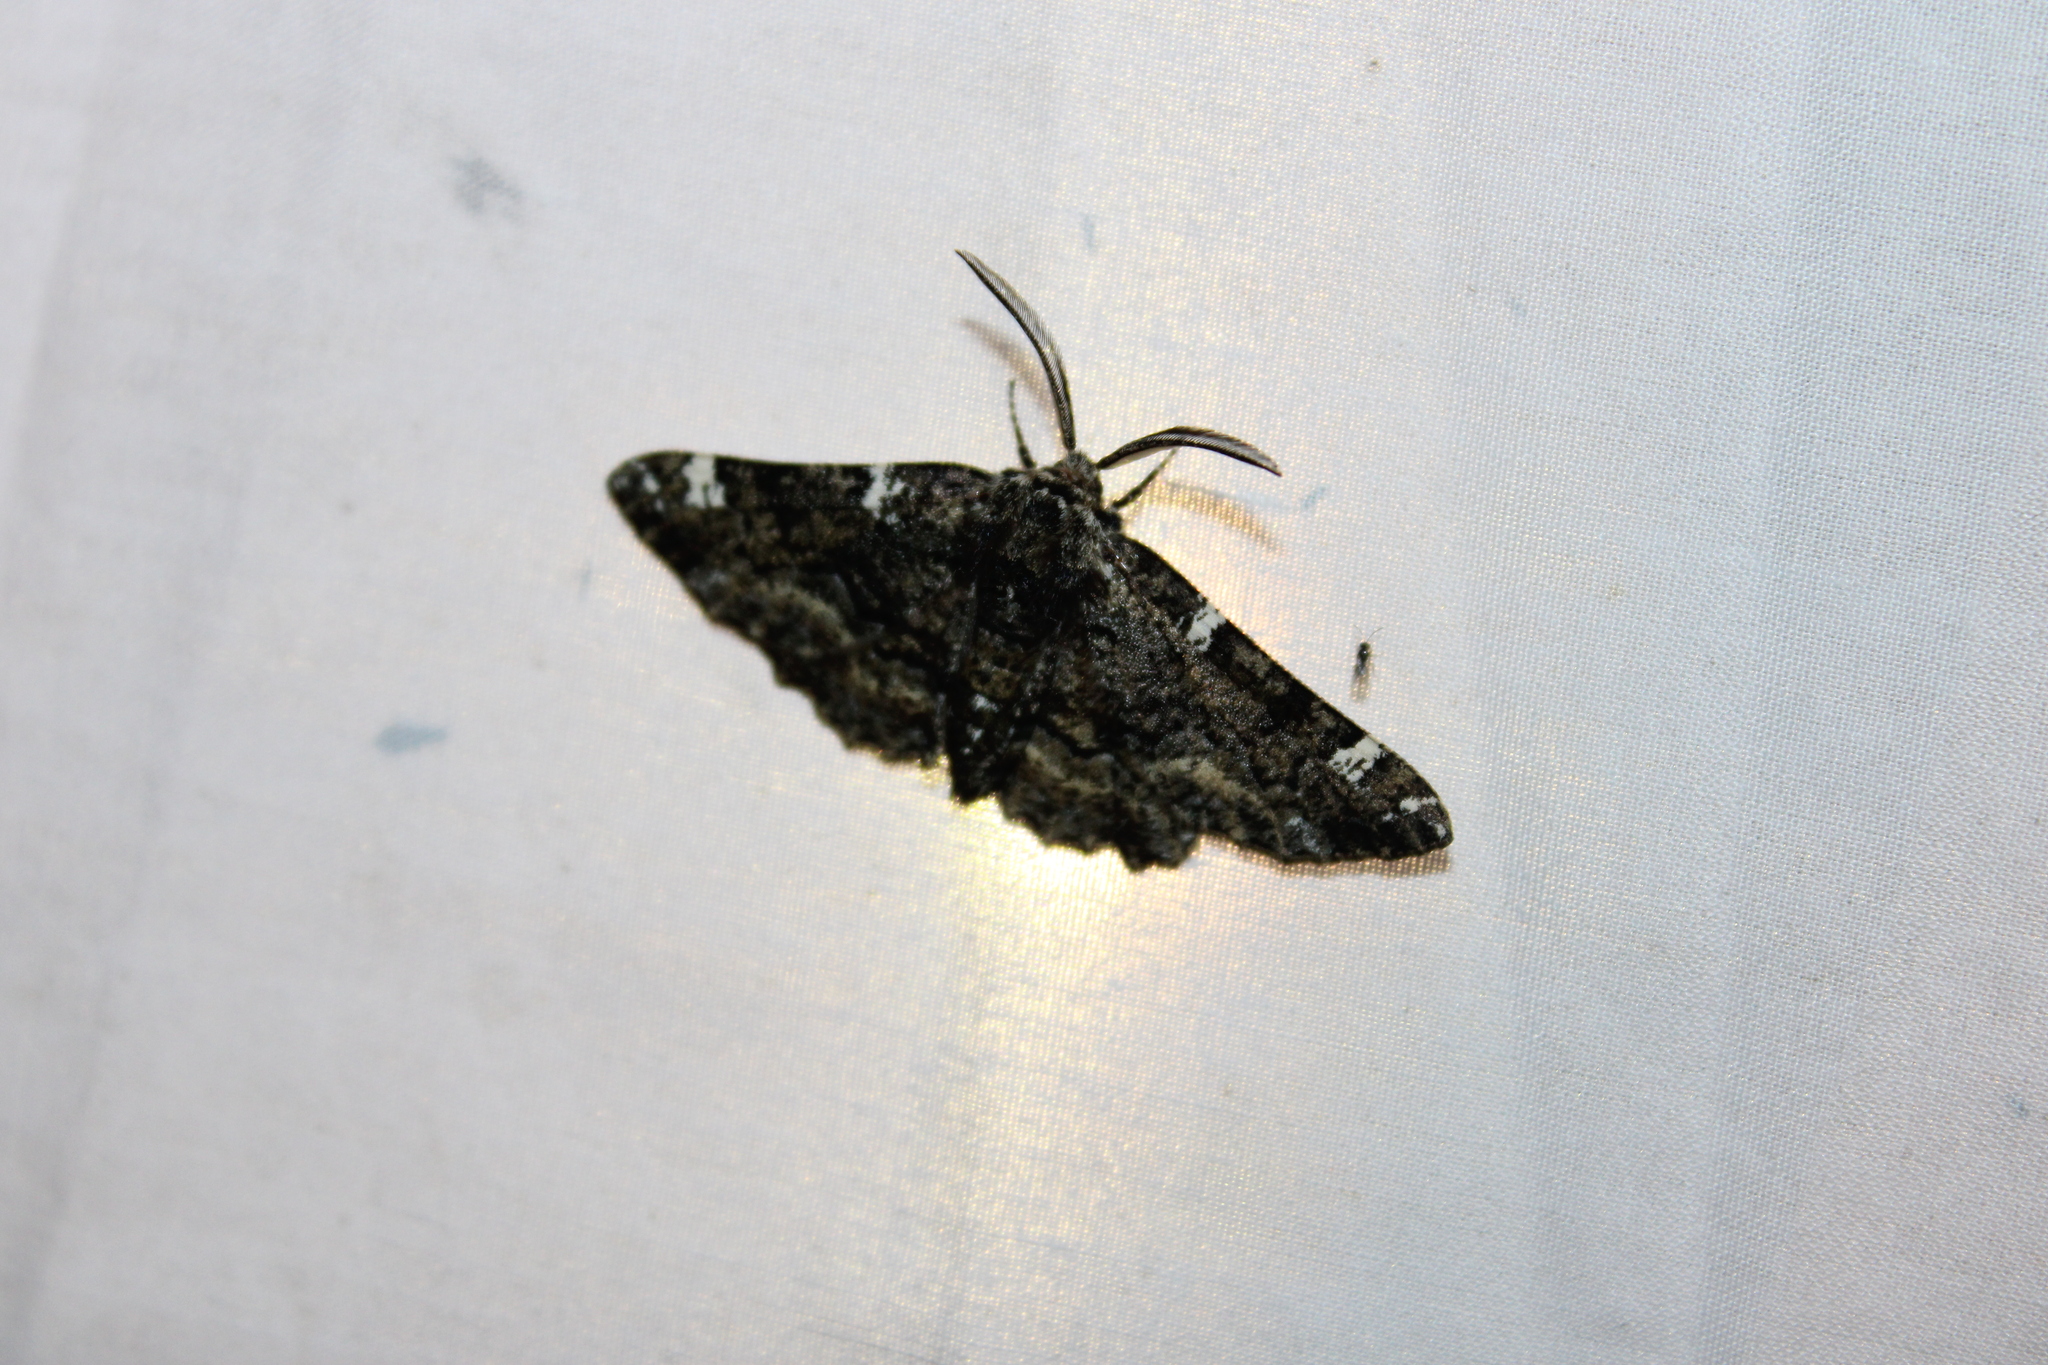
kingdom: Animalia
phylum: Arthropoda
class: Insecta
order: Lepidoptera
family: Geometridae
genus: Phaeoura
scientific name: Phaeoura quernaria
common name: Oak beauty
